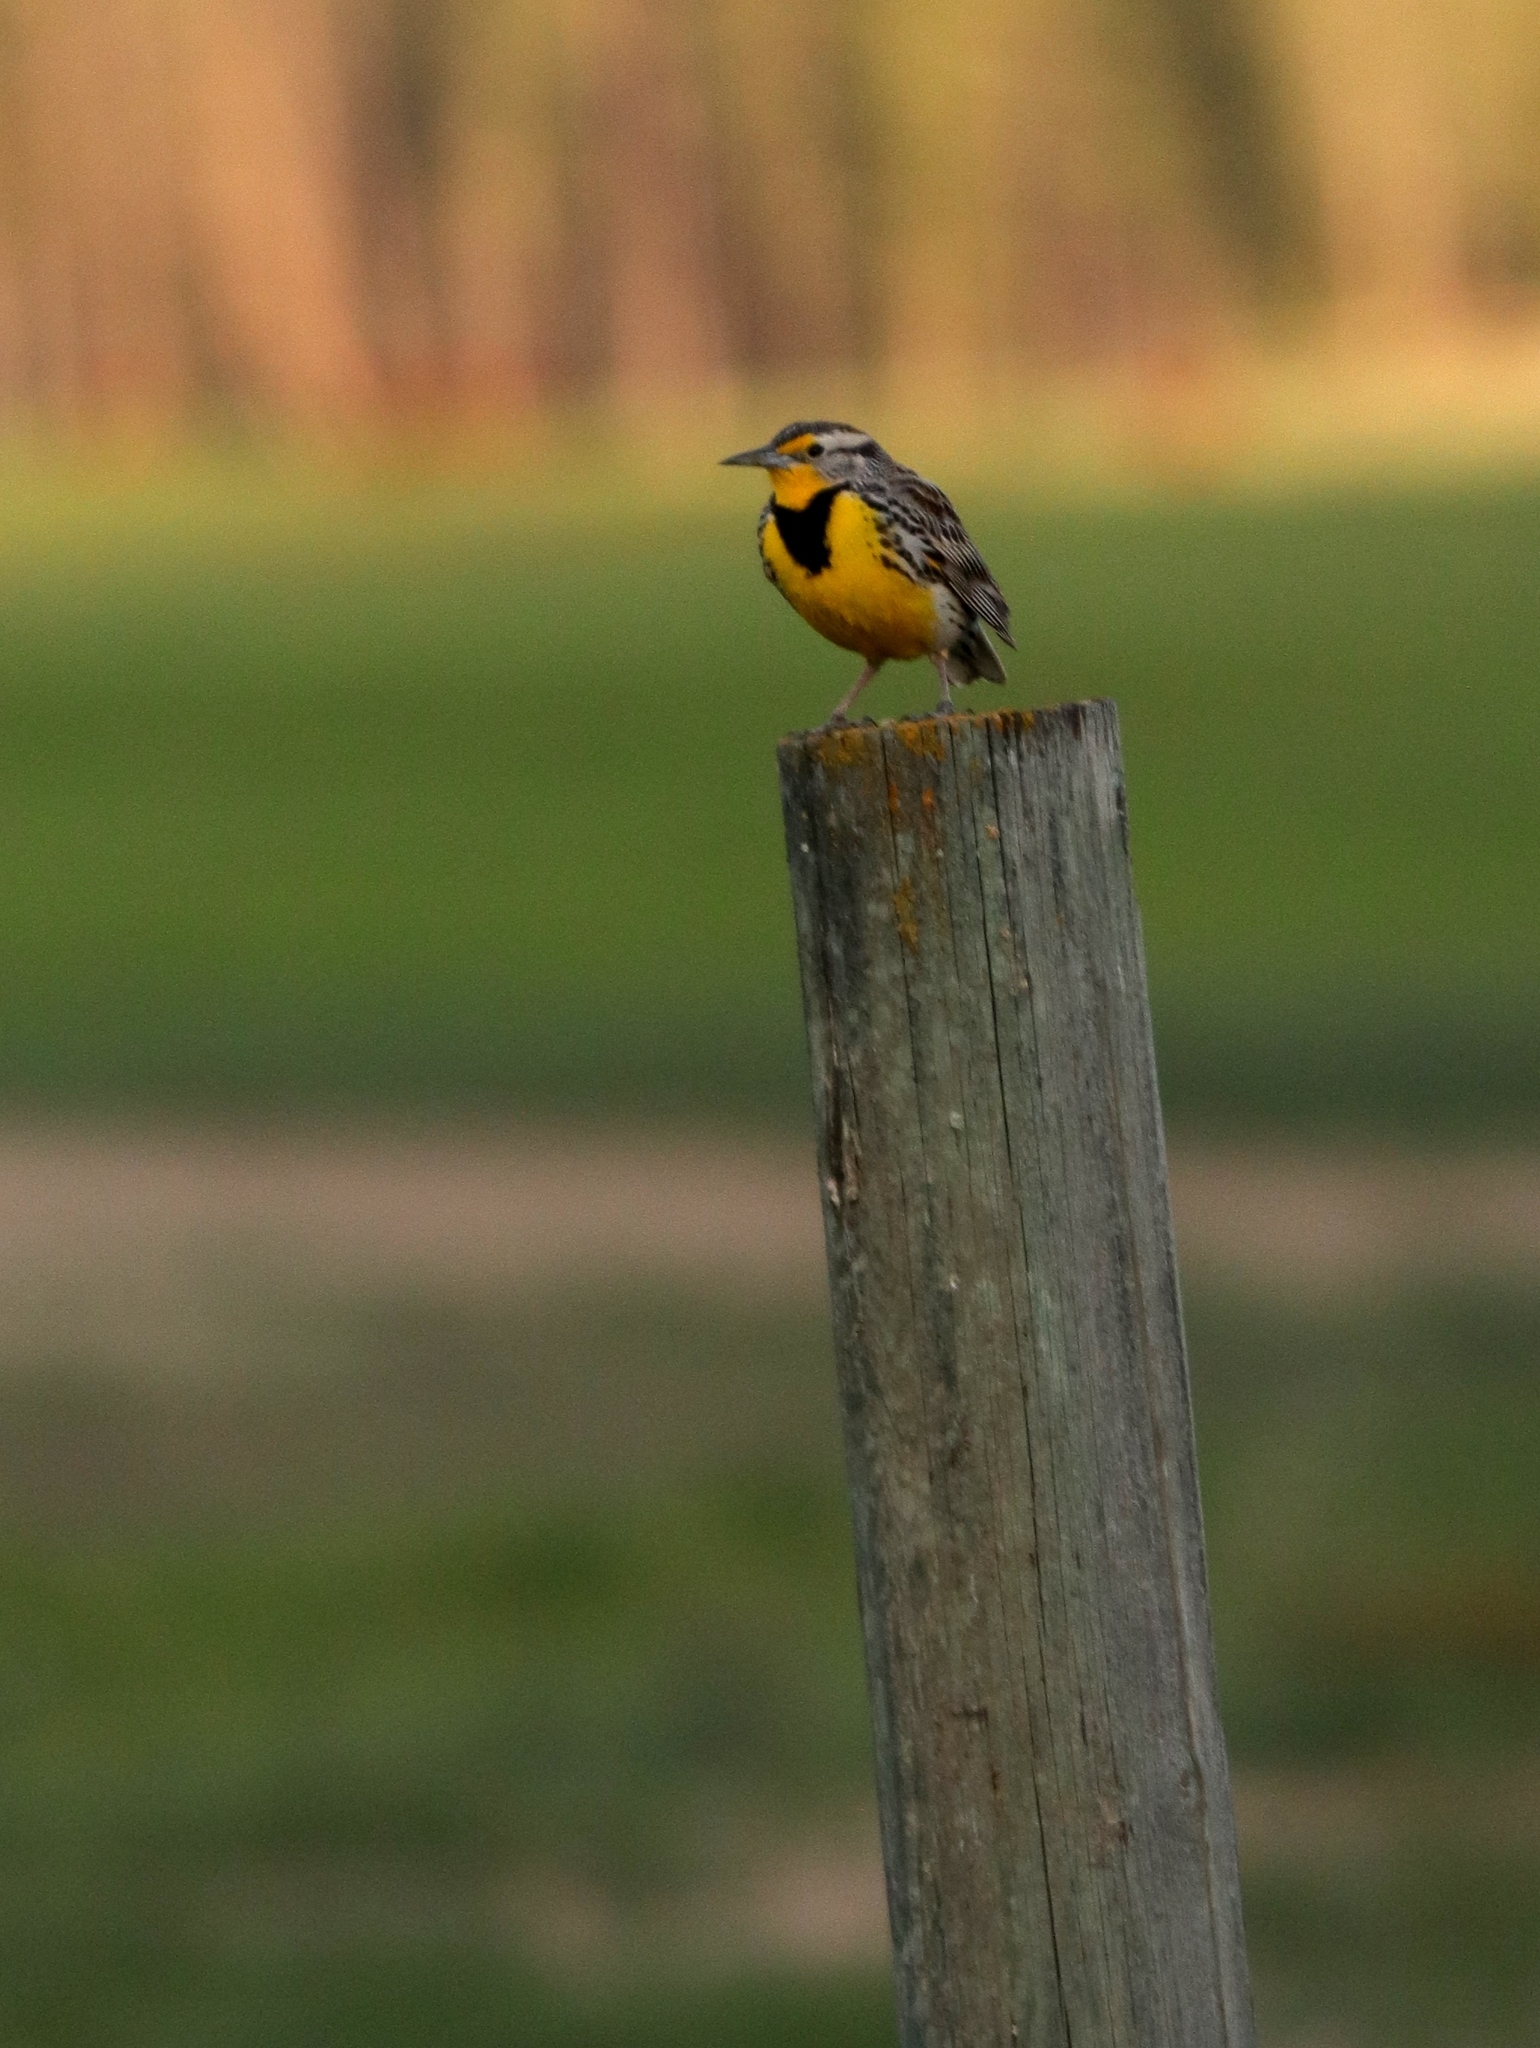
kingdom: Animalia
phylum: Chordata
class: Aves
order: Passeriformes
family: Icteridae
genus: Sturnella
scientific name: Sturnella neglecta
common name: Western meadowlark
